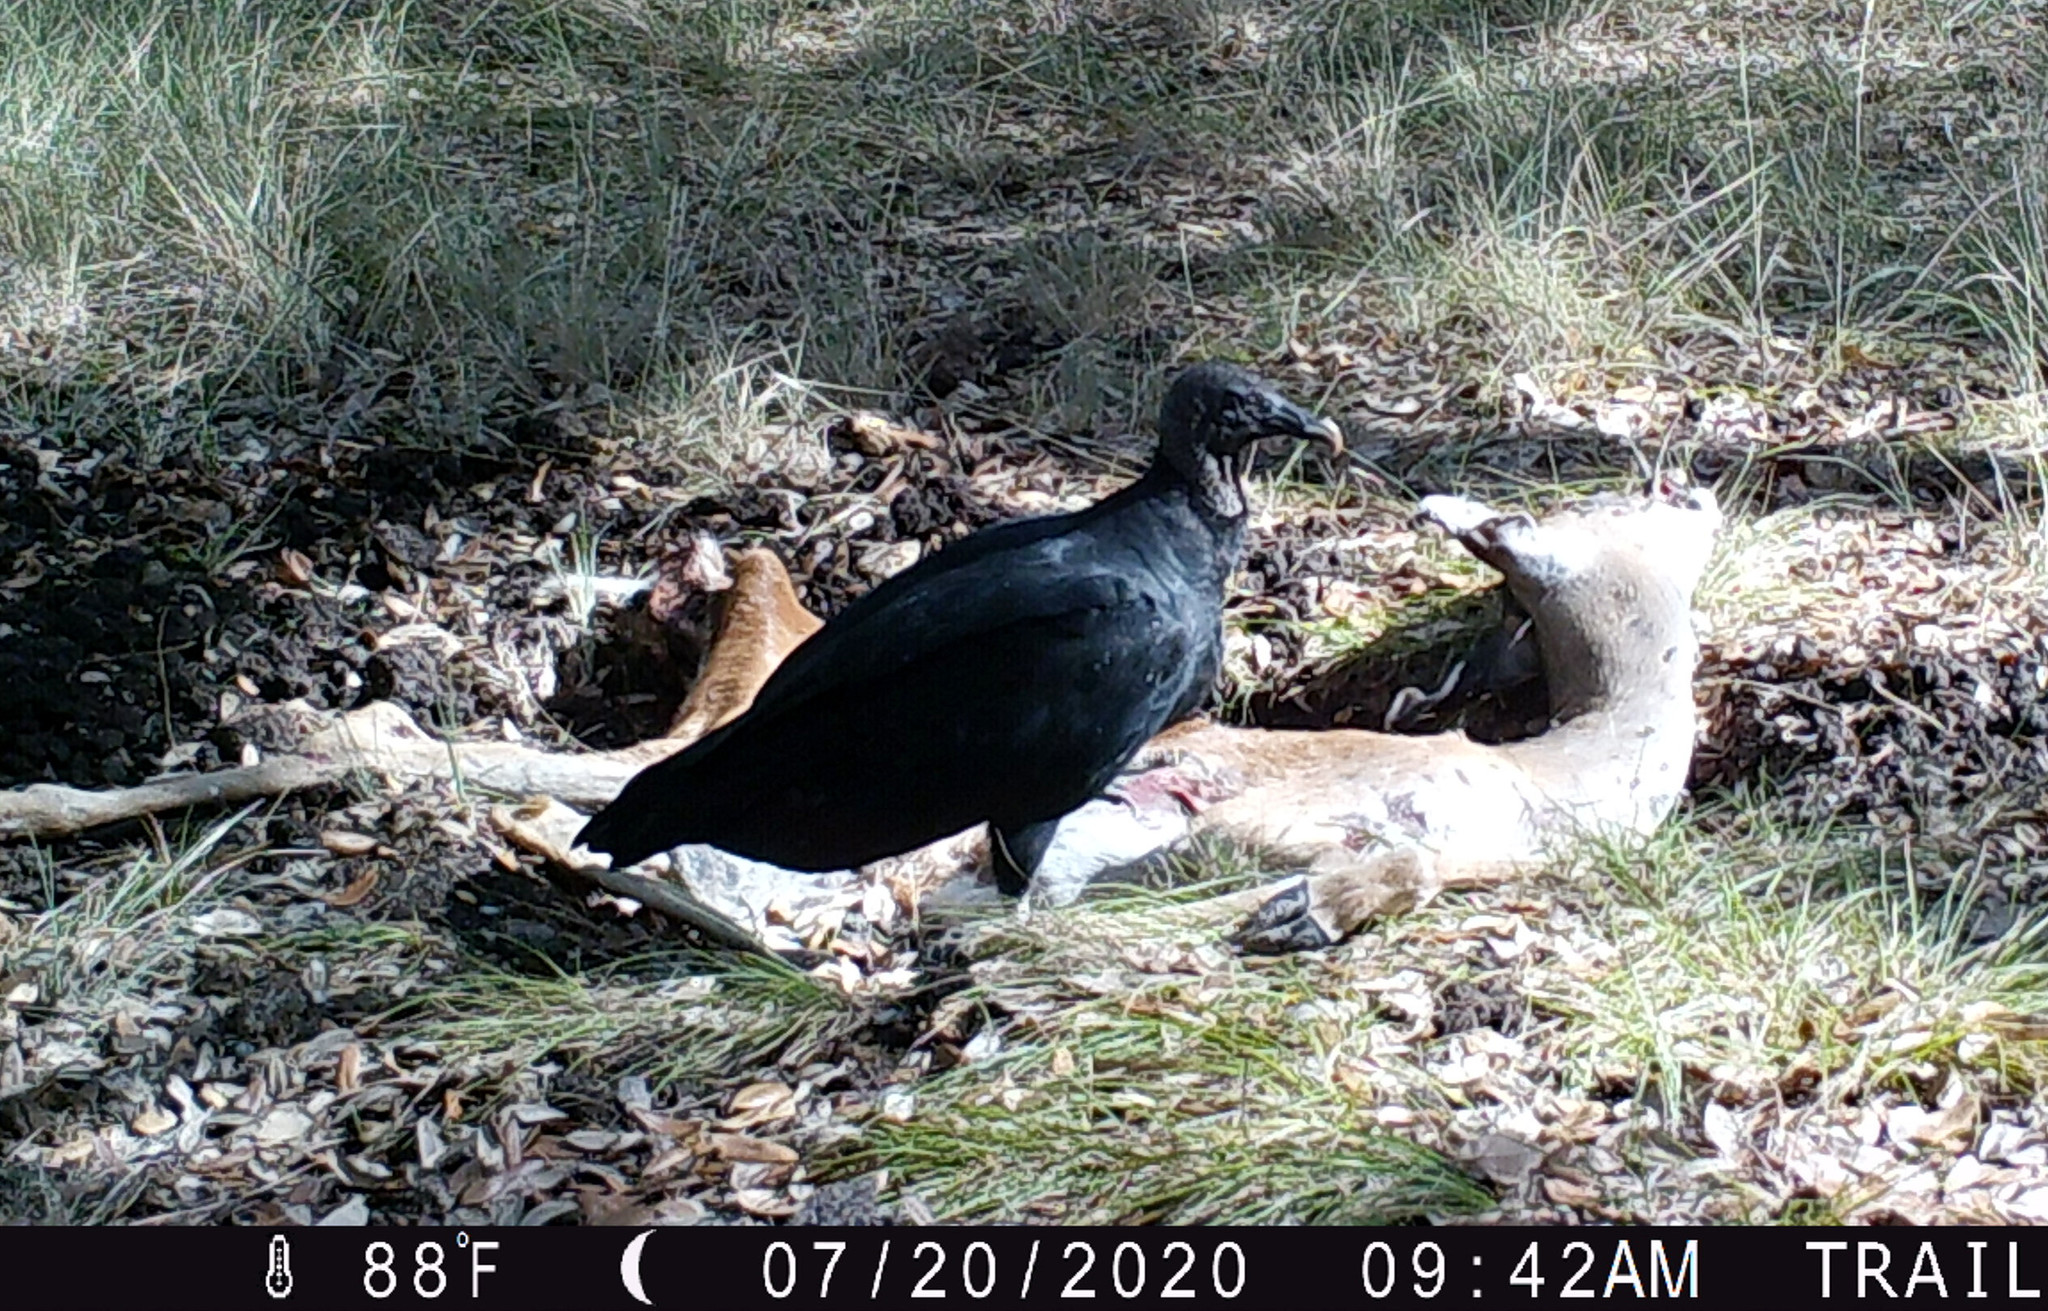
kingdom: Animalia
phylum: Chordata
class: Aves
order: Accipitriformes
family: Cathartidae
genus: Coragyps
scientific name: Coragyps atratus
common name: Black vulture
